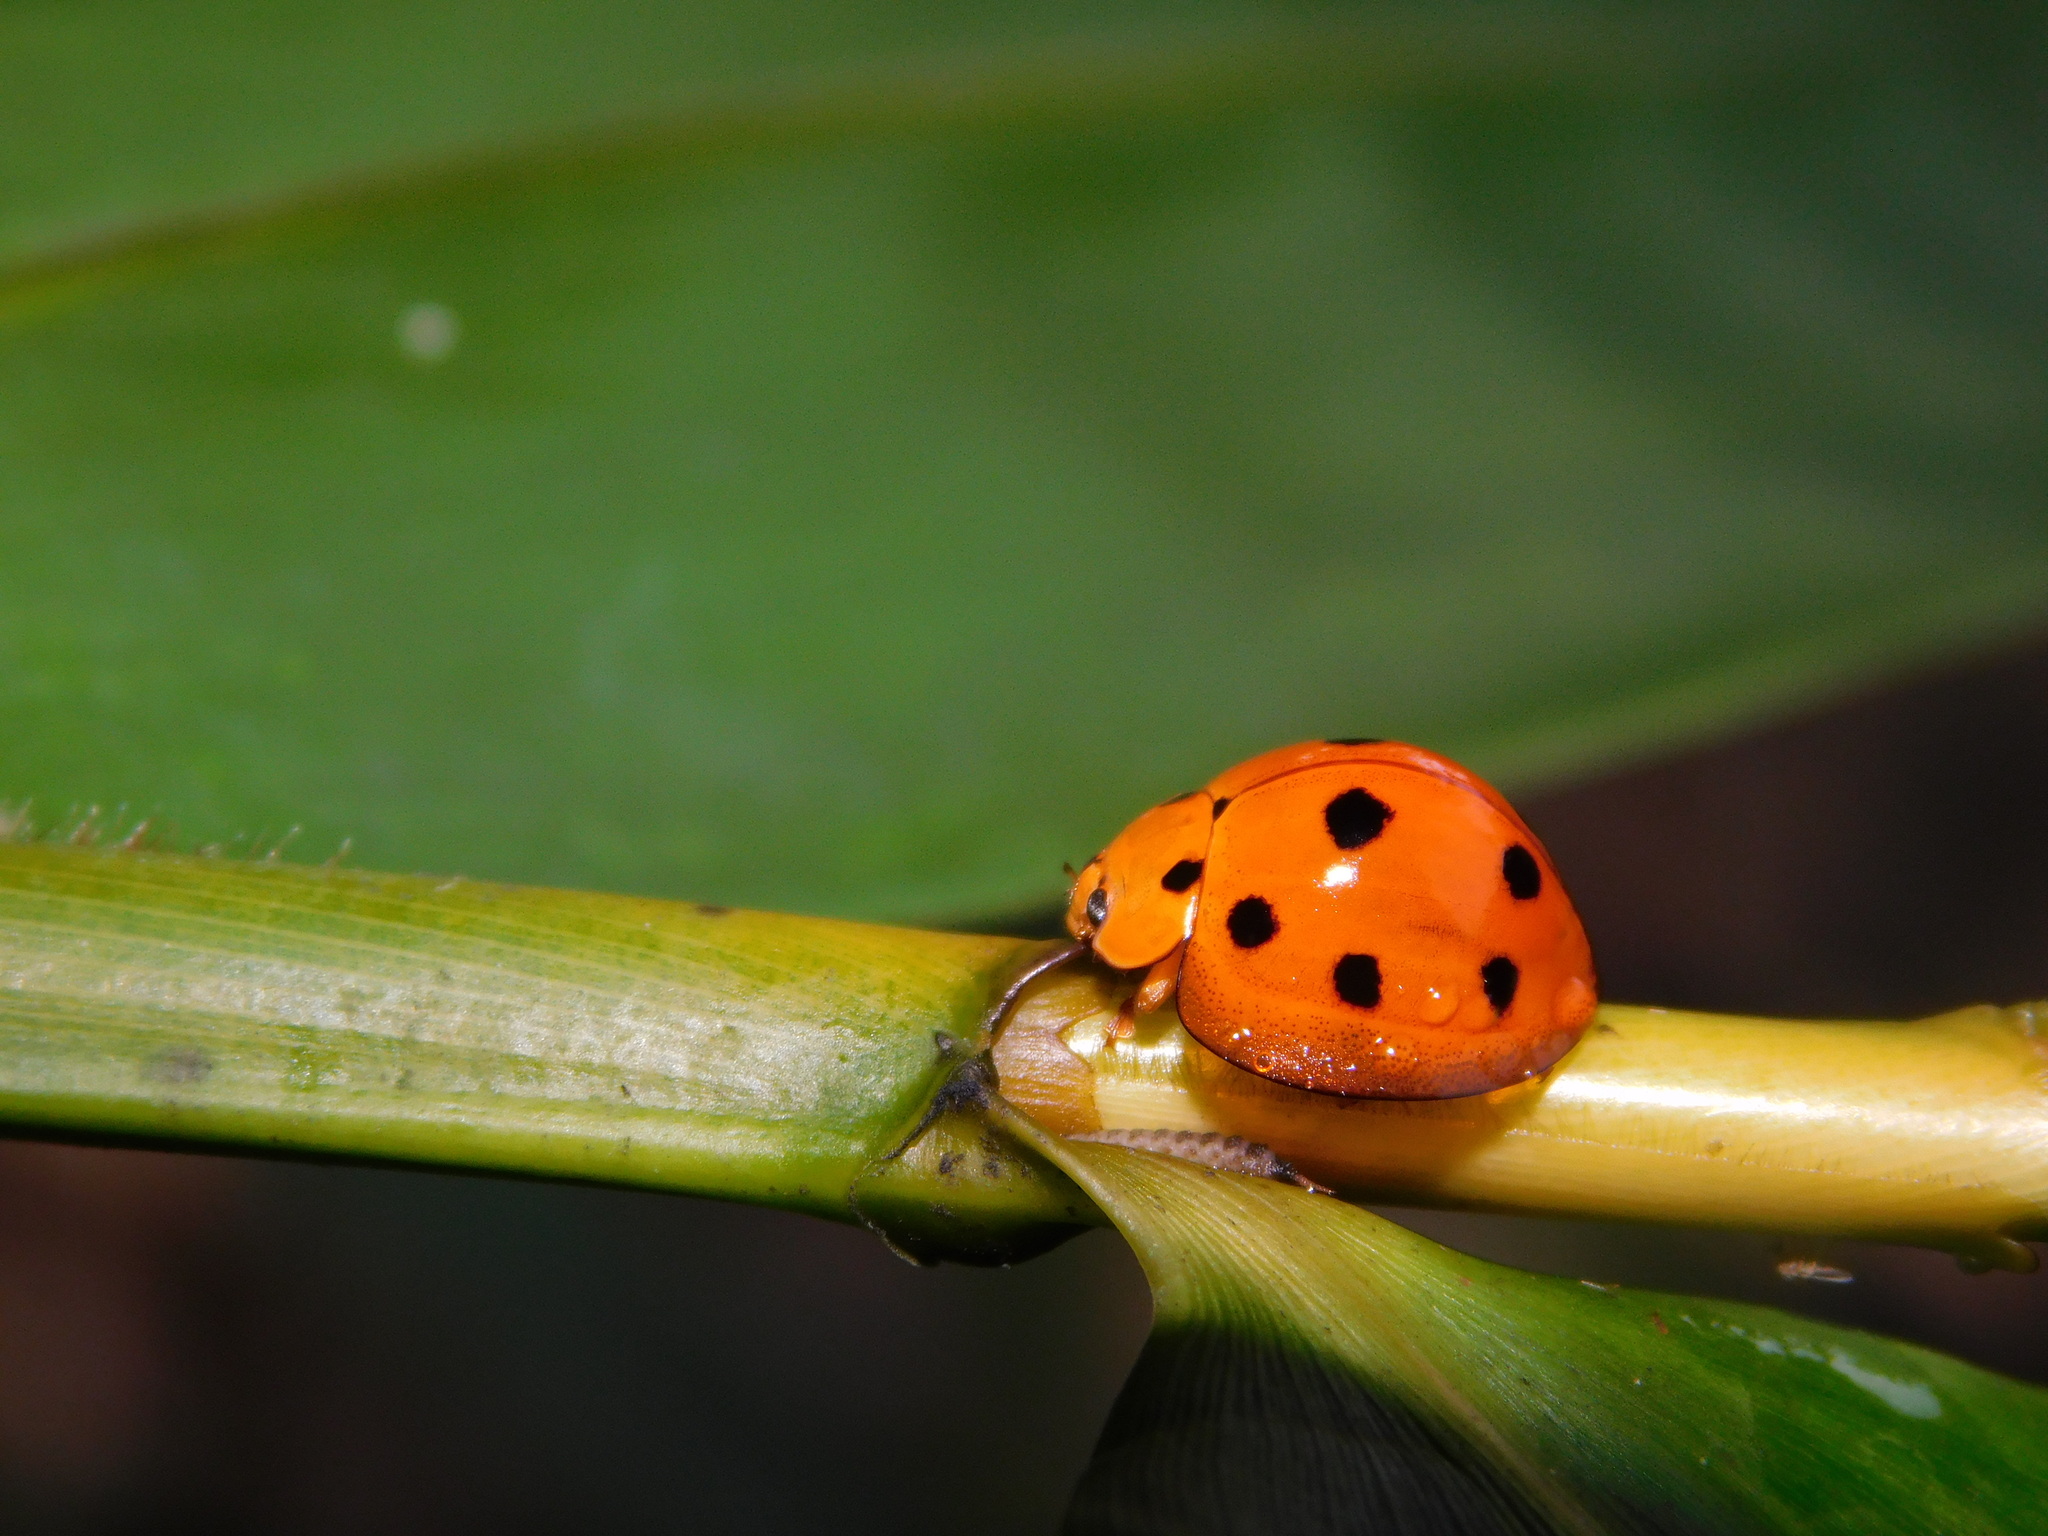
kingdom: Animalia
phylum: Arthropoda
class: Insecta
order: Coleoptera
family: Coccinellidae
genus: Megalocaria
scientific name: Megalocaria dilatata
